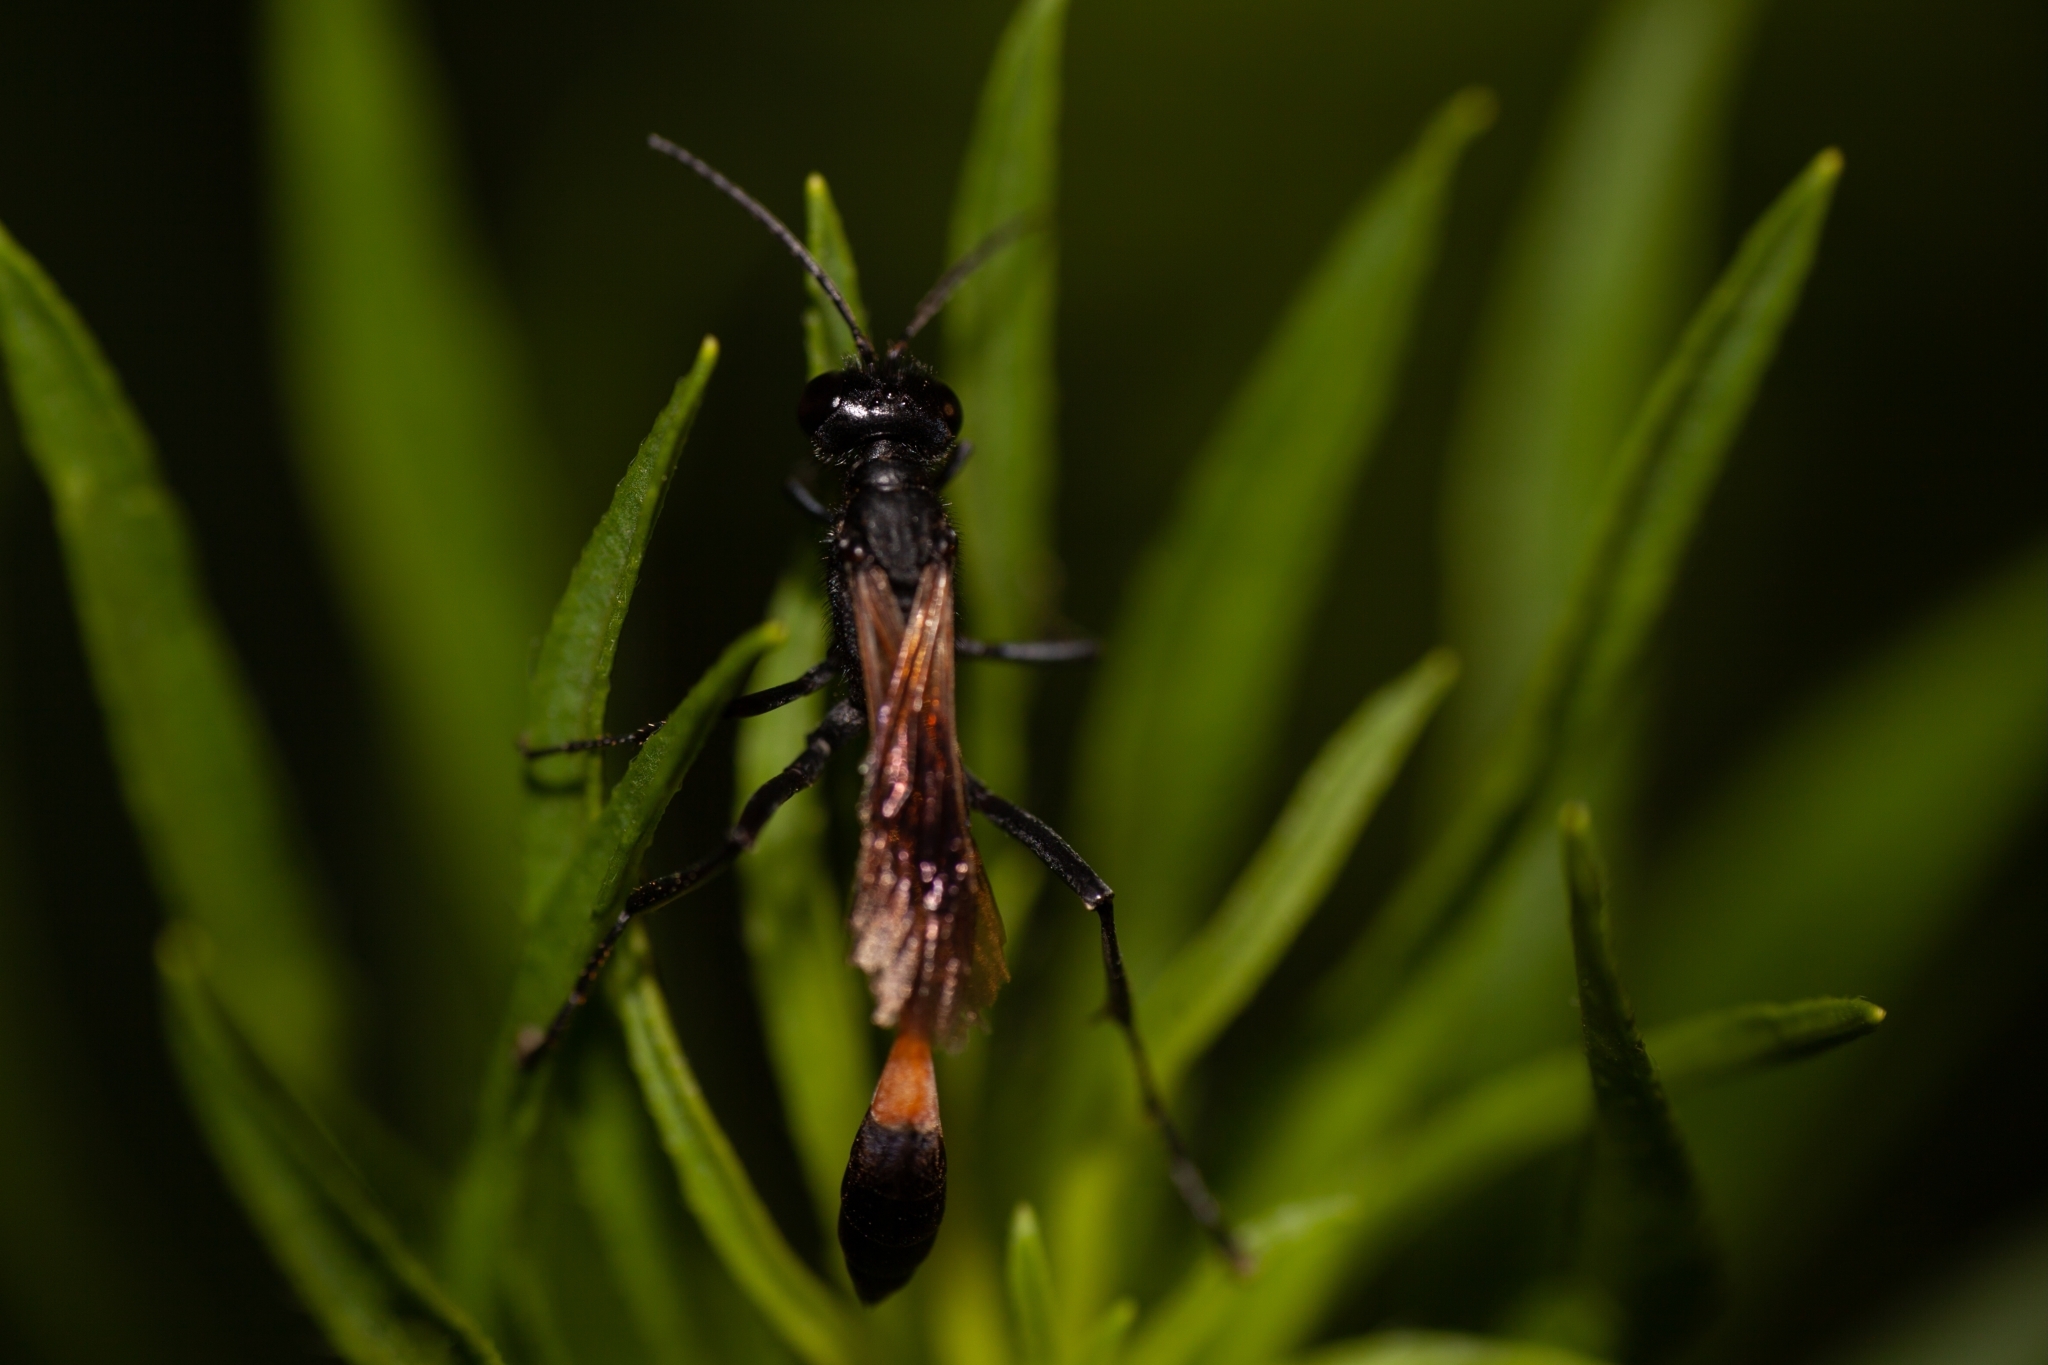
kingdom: Animalia
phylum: Arthropoda
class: Insecta
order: Hymenoptera
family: Sphecidae
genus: Ammophila
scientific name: Ammophila pictipennis
